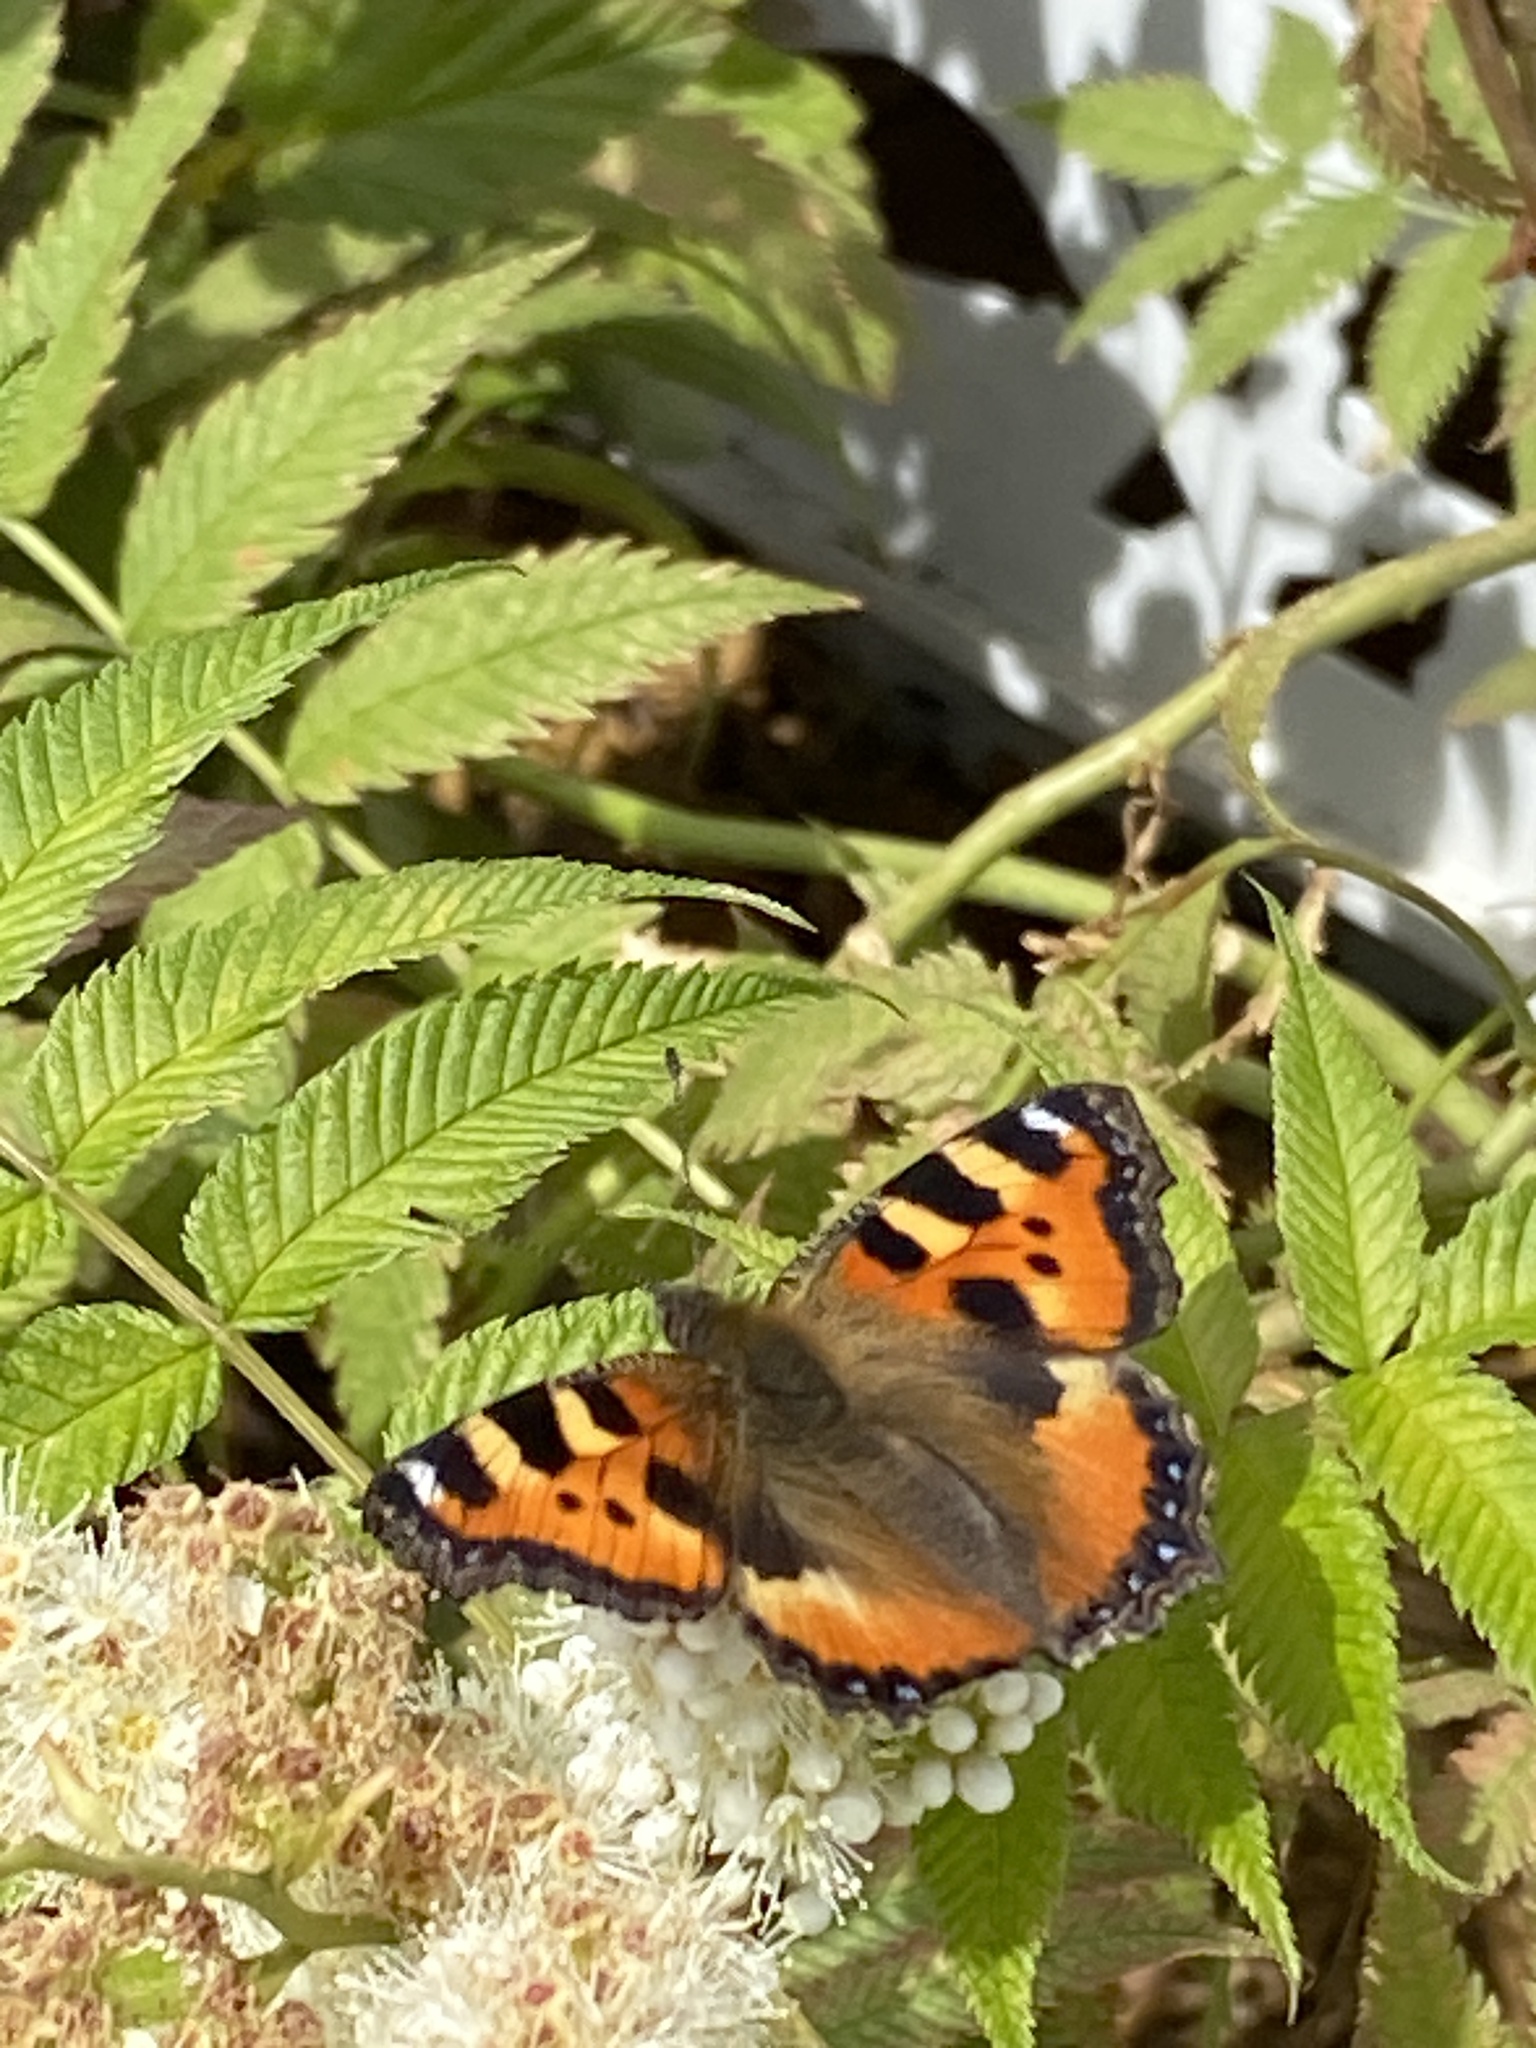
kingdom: Animalia
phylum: Arthropoda
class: Insecta
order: Lepidoptera
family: Nymphalidae
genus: Aglais
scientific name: Aglais urticae
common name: Small tortoiseshell
